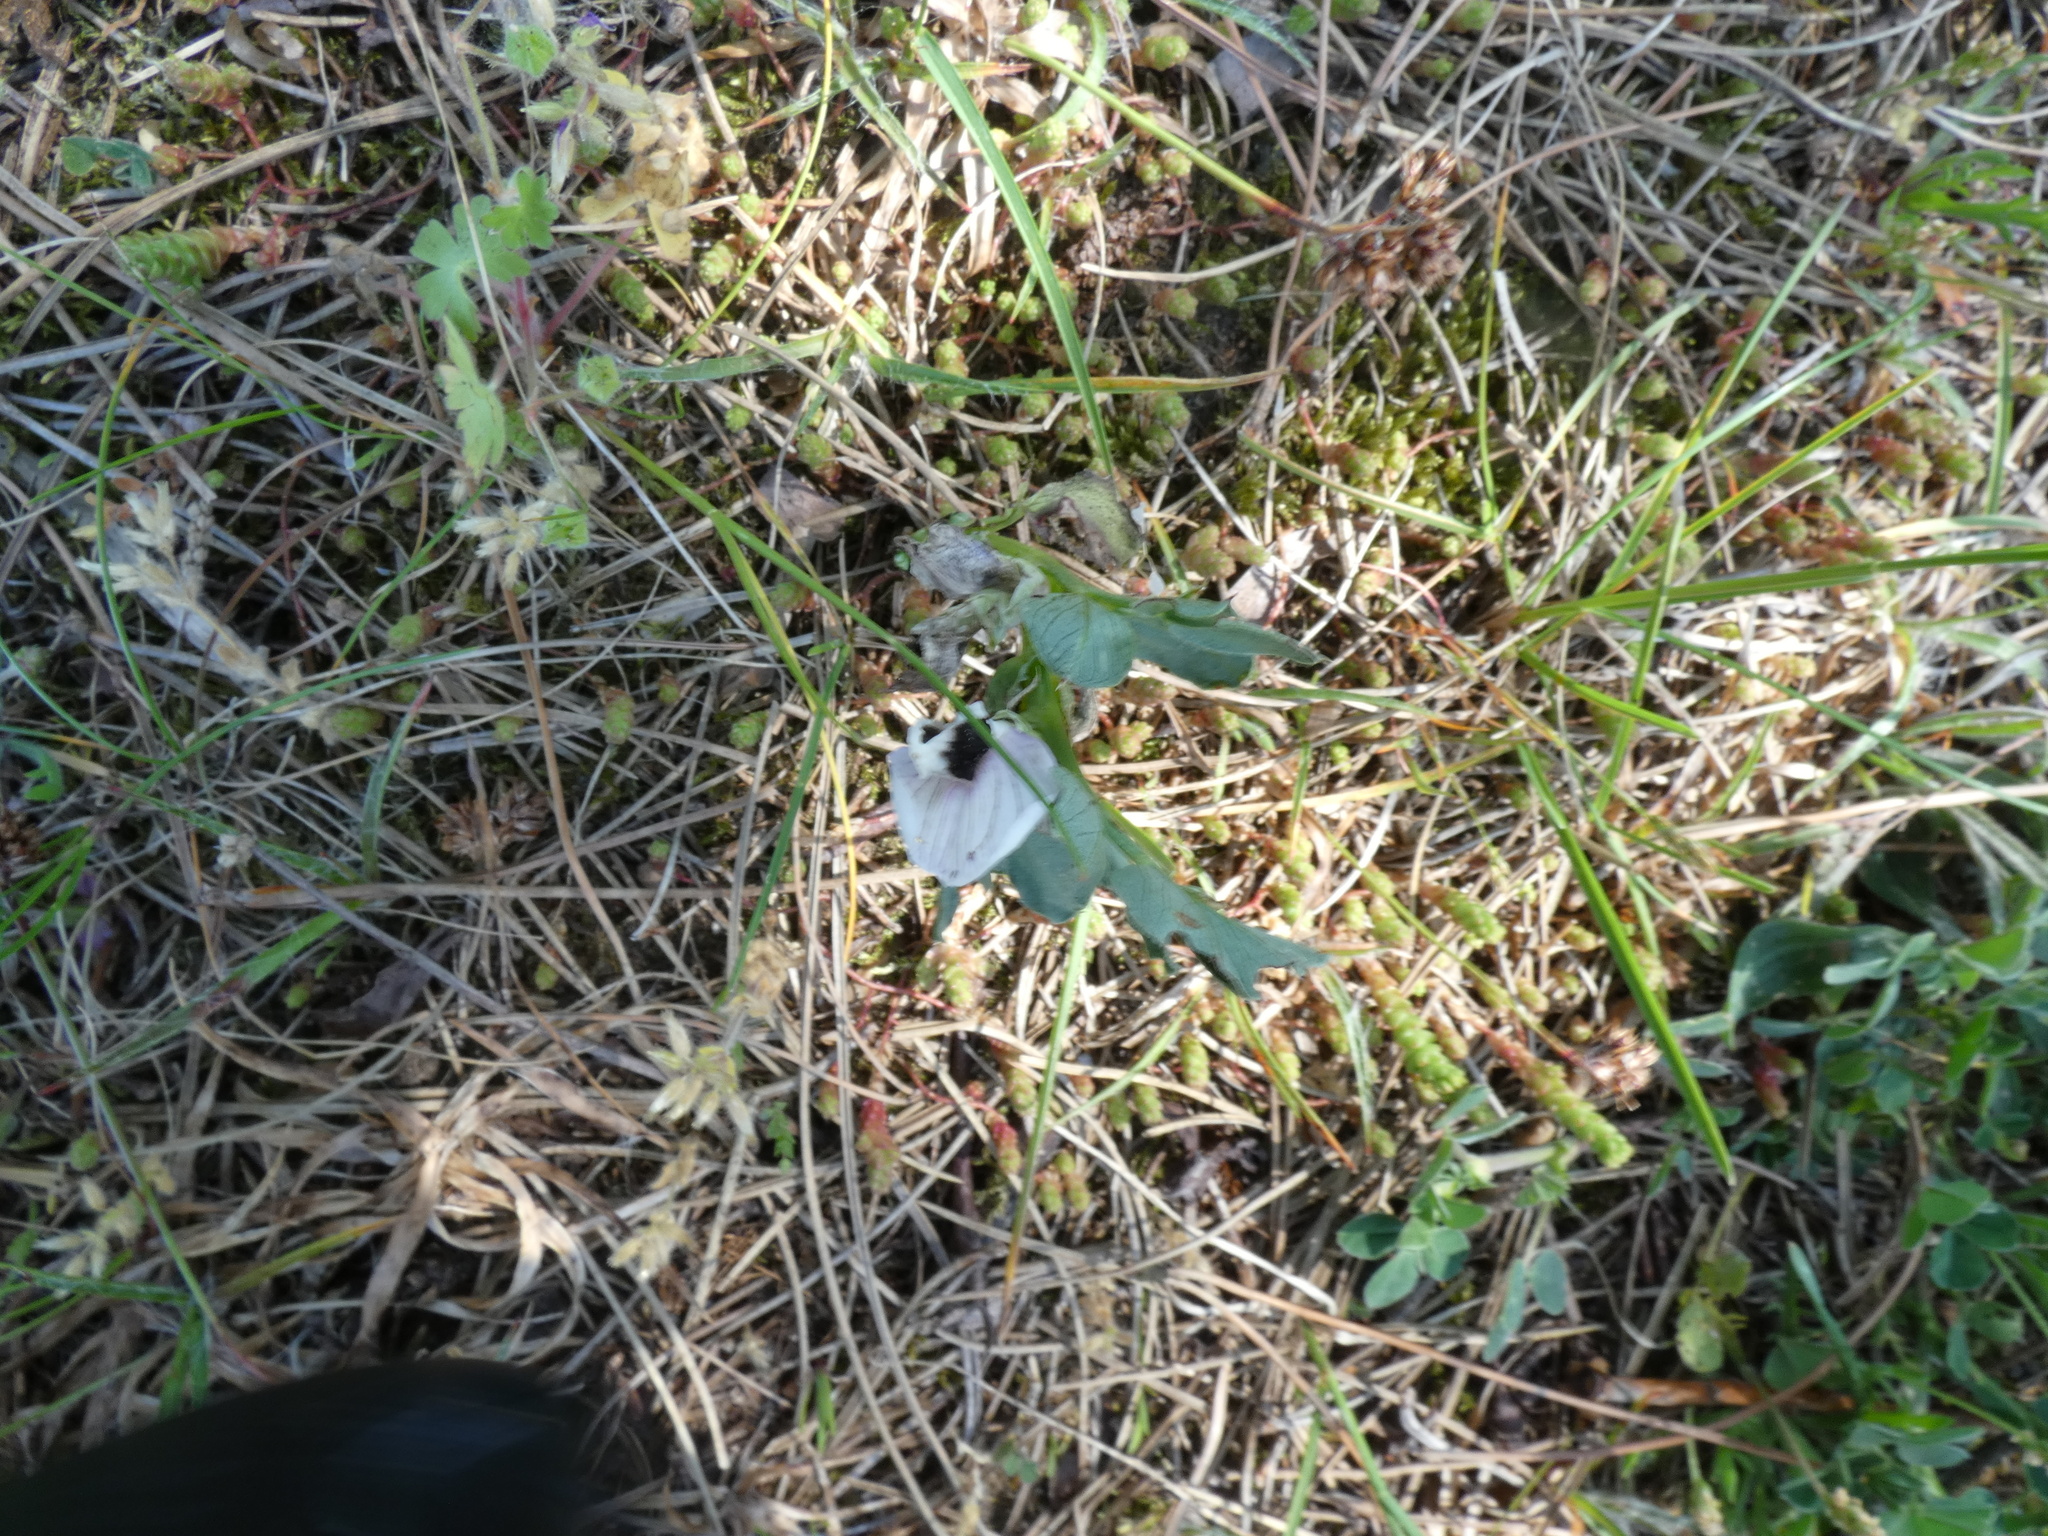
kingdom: Plantae
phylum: Tracheophyta
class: Magnoliopsida
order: Fabales
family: Fabaceae
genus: Vicia
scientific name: Vicia faba
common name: Broad bean
